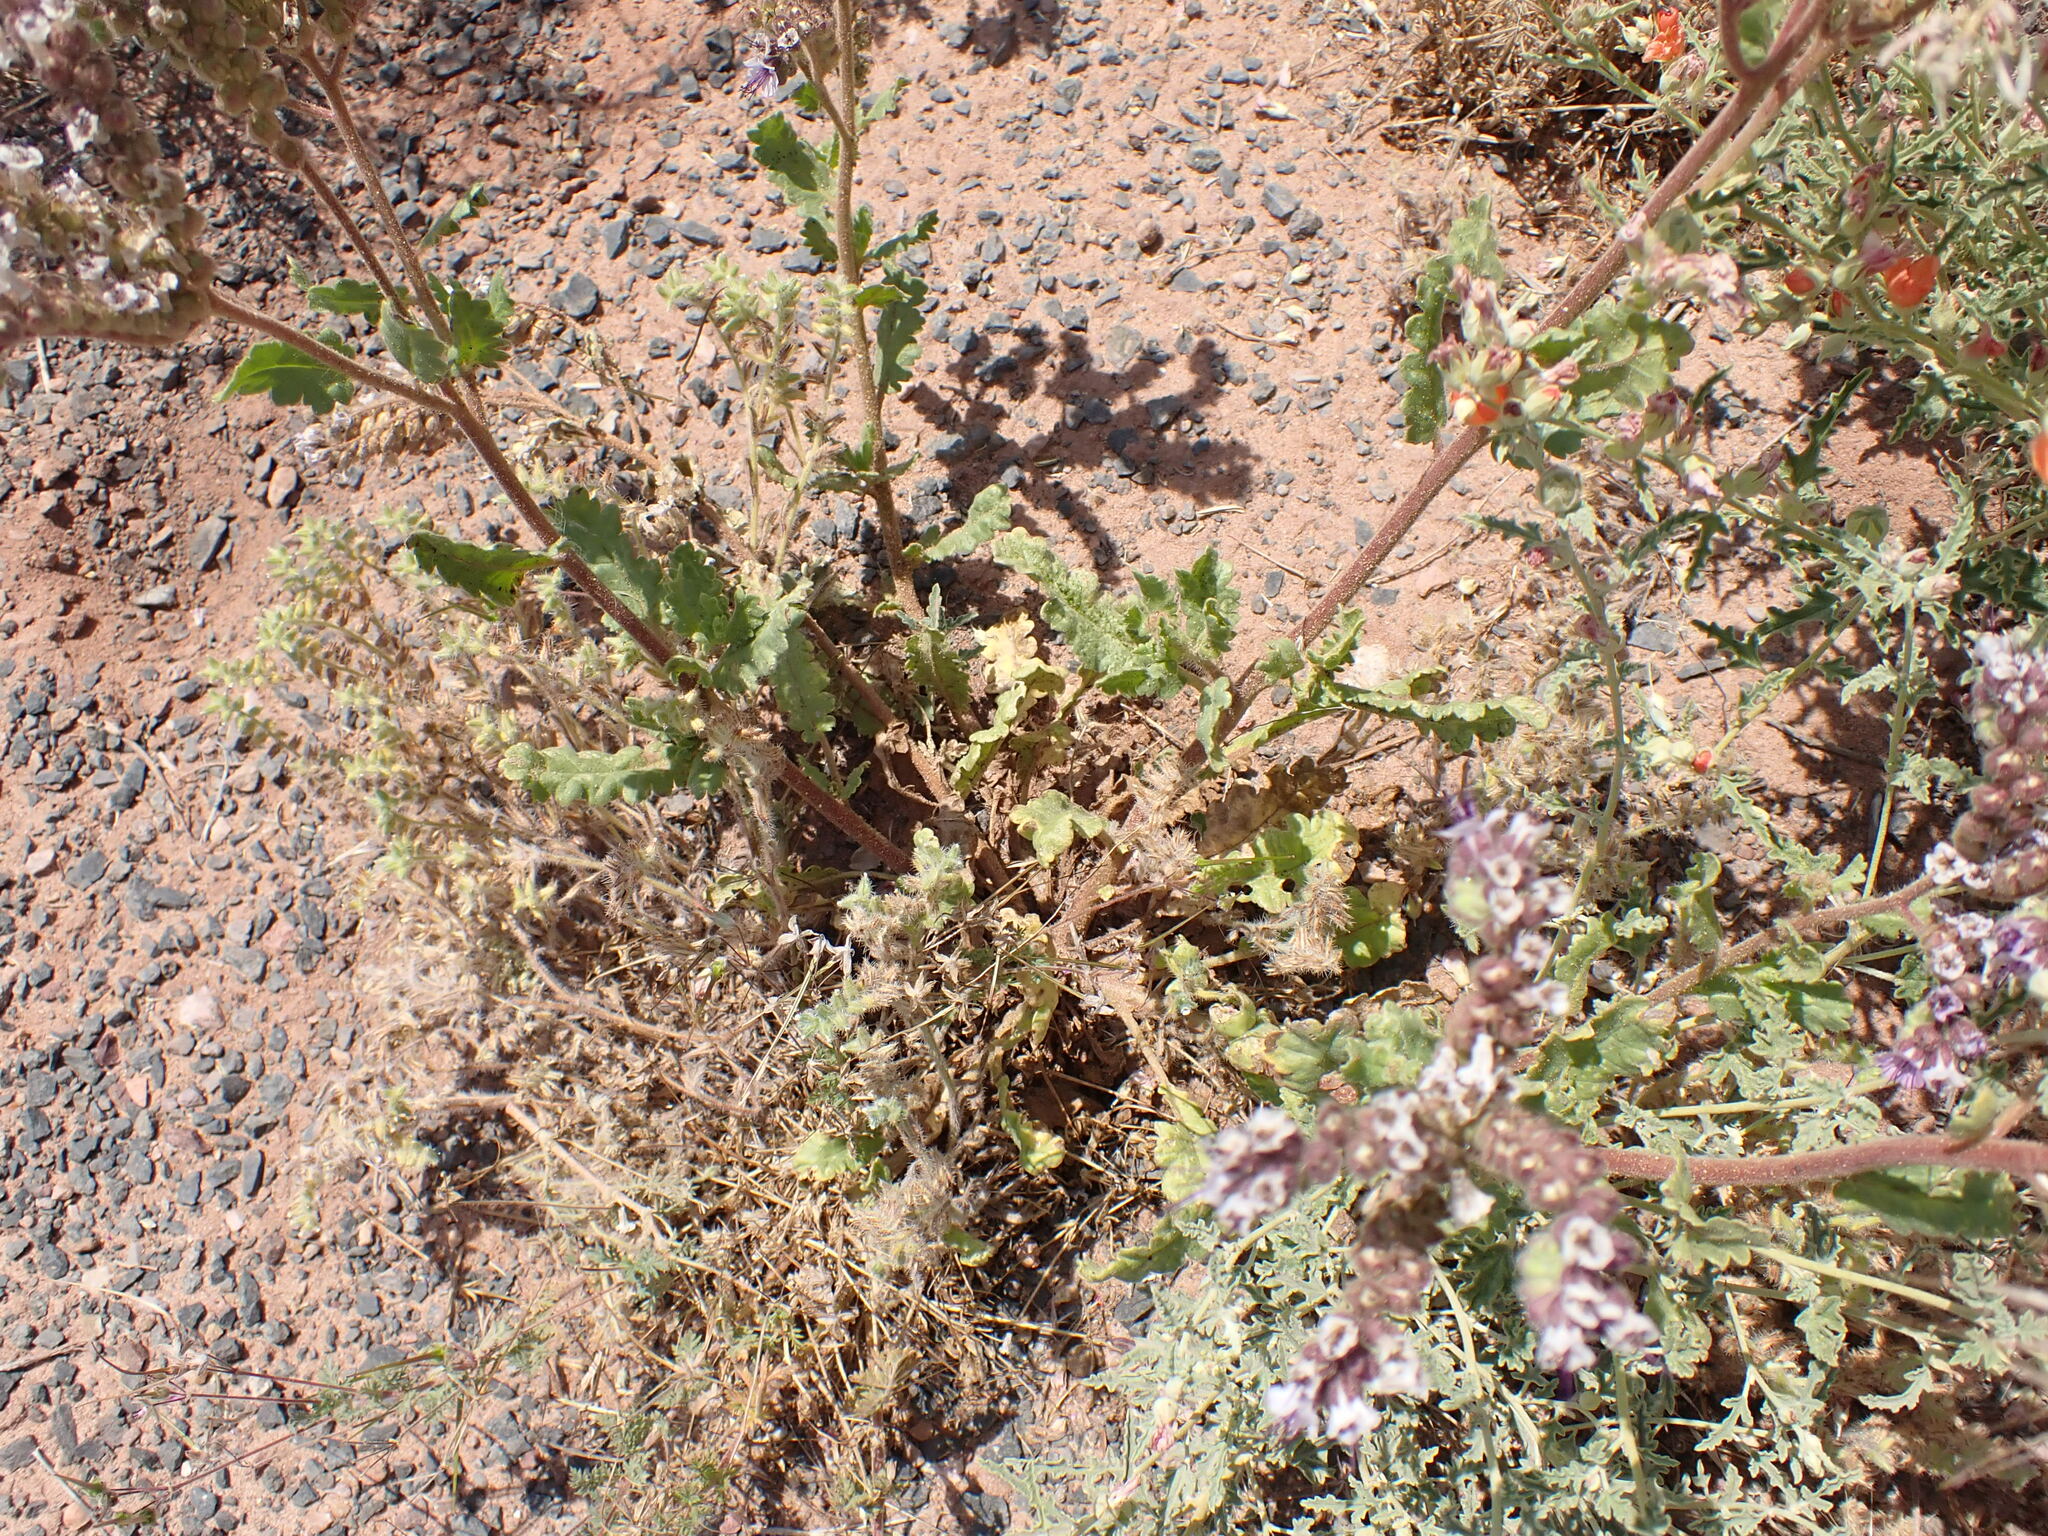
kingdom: Plantae
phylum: Tracheophyta
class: Magnoliopsida
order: Boraginales
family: Hydrophyllaceae
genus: Phacelia
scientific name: Phacelia integrifolia
